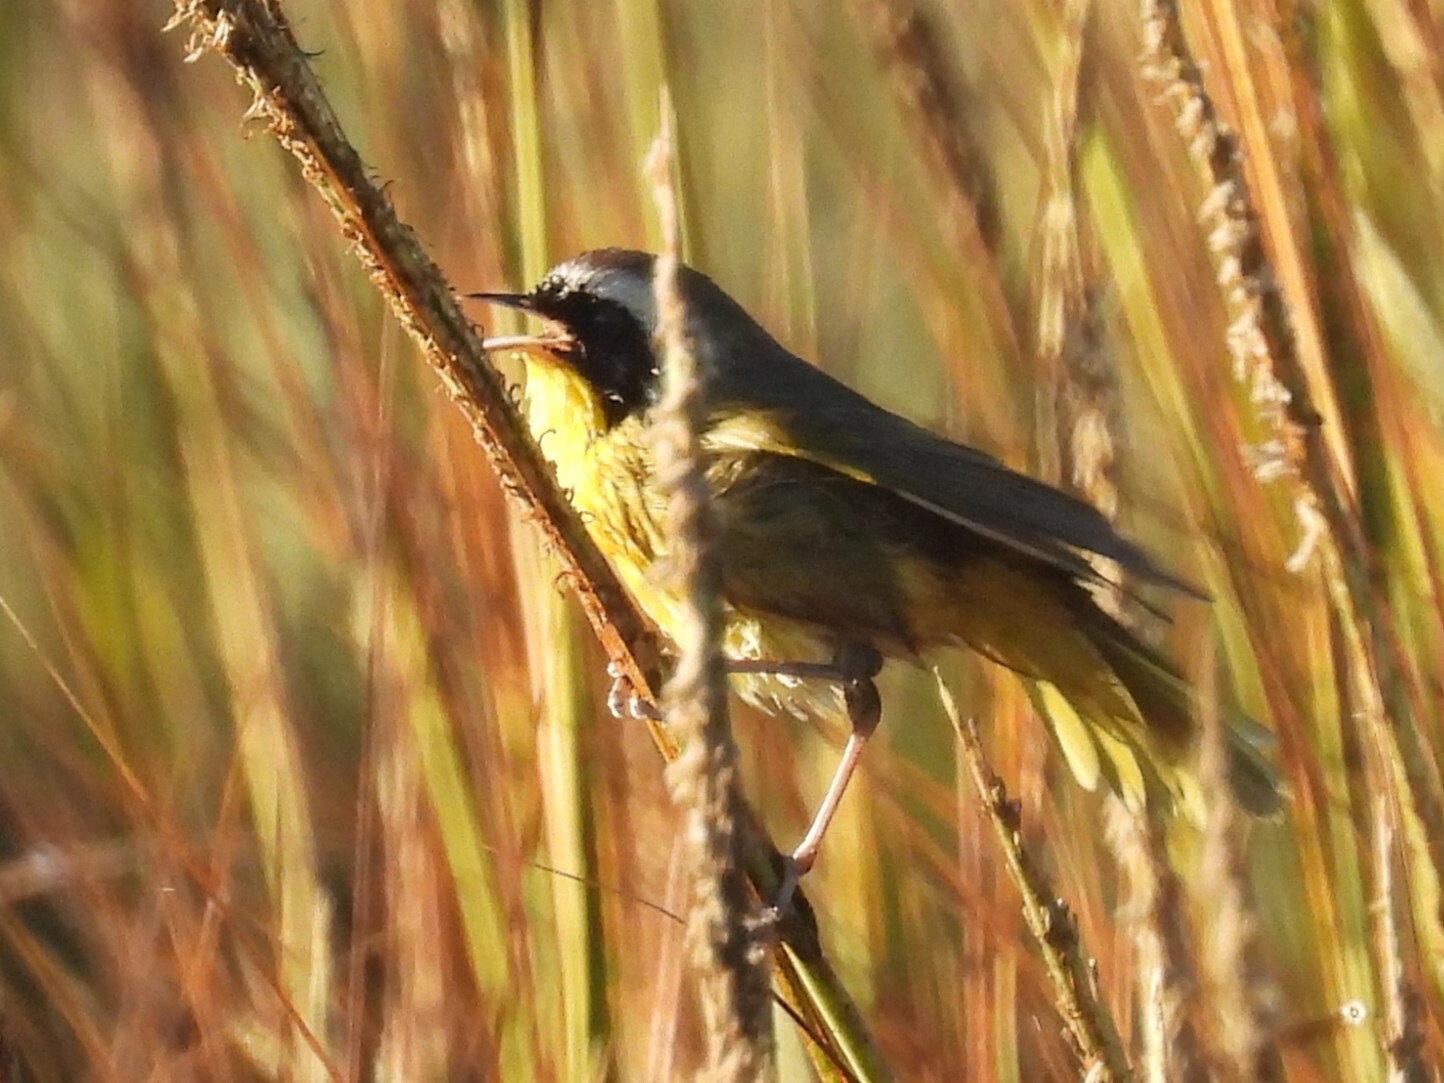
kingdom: Animalia
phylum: Chordata
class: Aves
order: Passeriformes
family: Parulidae
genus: Geothlypis
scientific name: Geothlypis trichas
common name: Common yellowthroat
